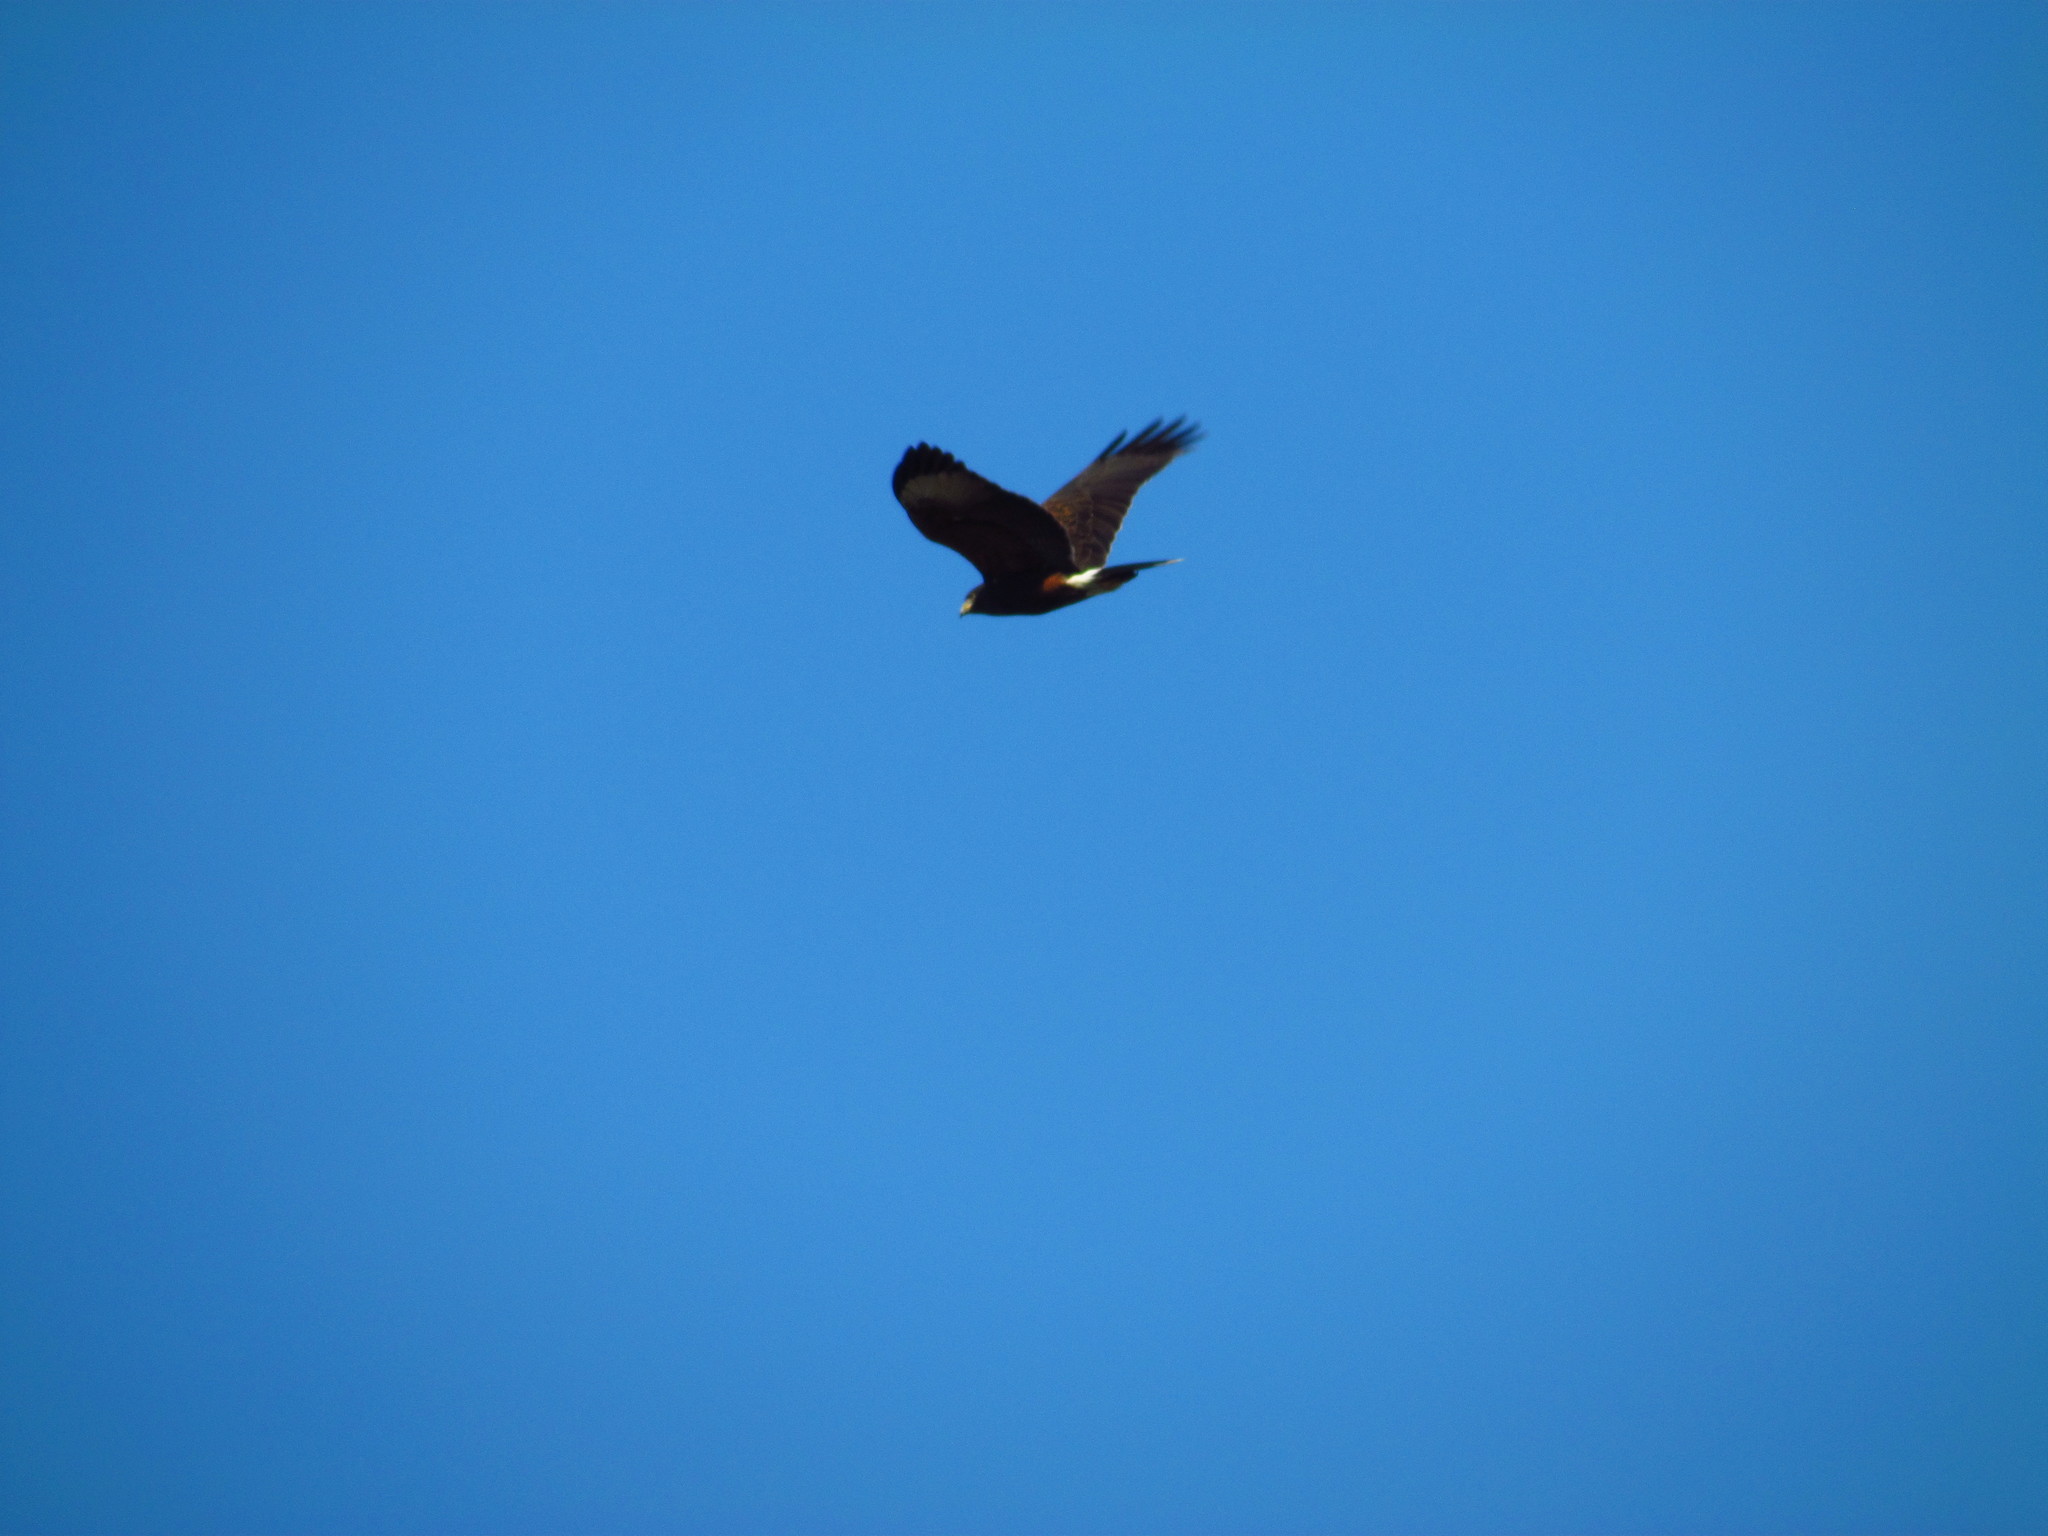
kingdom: Animalia
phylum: Chordata
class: Aves
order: Accipitriformes
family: Accipitridae
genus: Parabuteo
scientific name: Parabuteo unicinctus
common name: Harris's hawk
